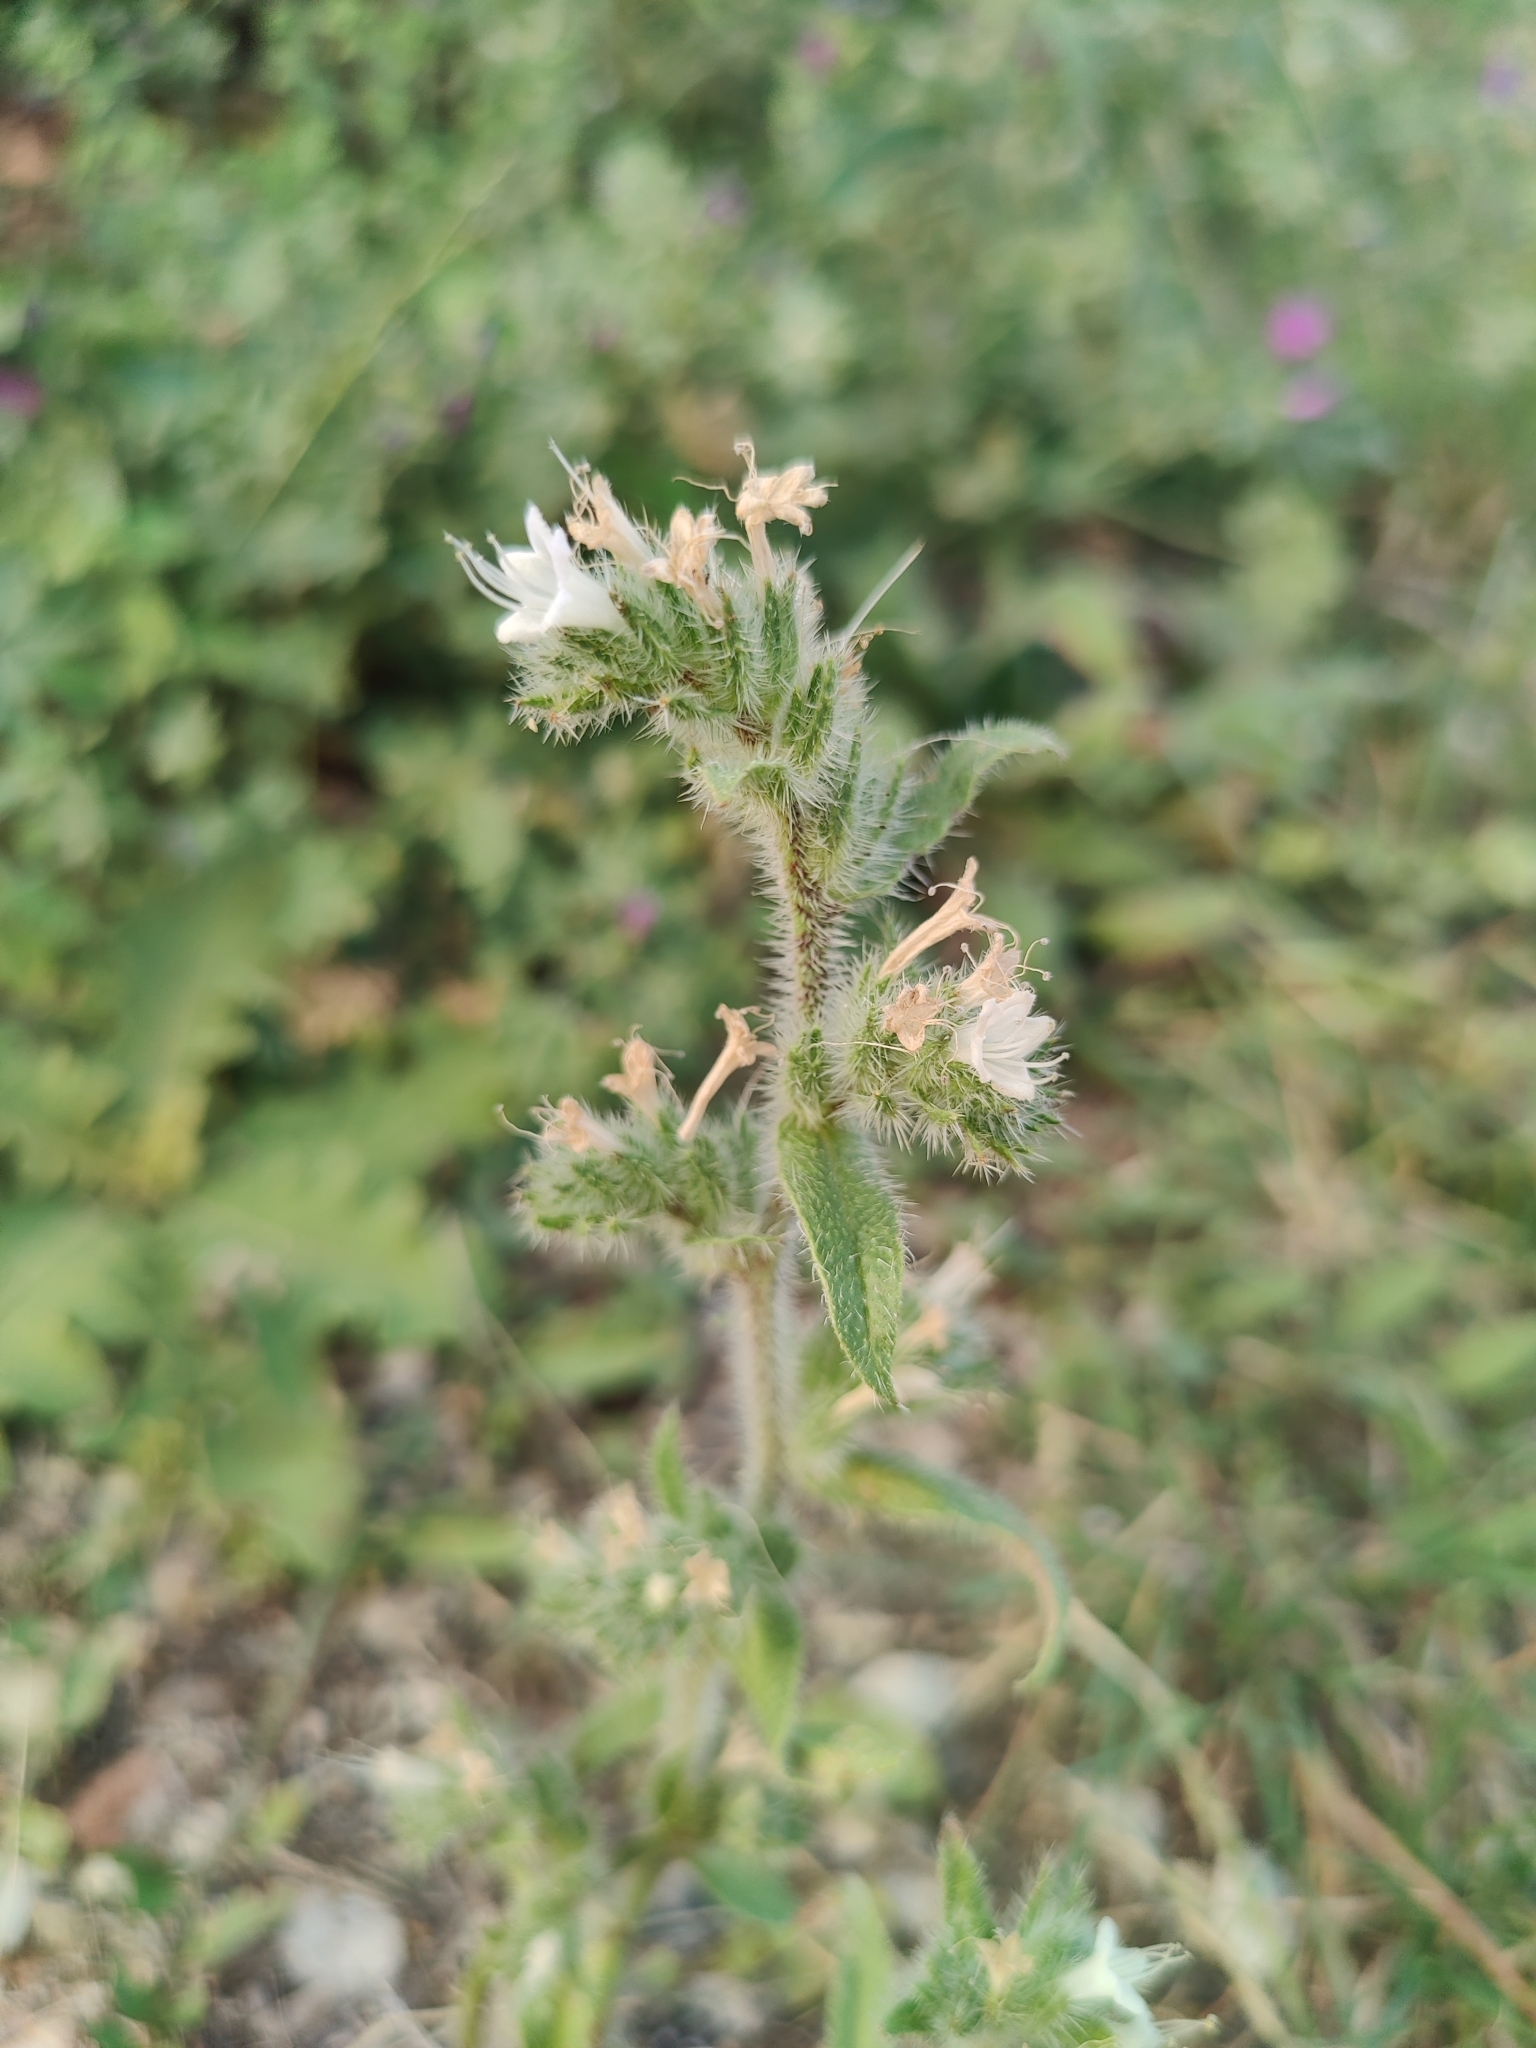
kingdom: Plantae
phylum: Tracheophyta
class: Magnoliopsida
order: Boraginales
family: Boraginaceae
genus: Echium
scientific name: Echium italicum
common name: Italian viper's bugloss
